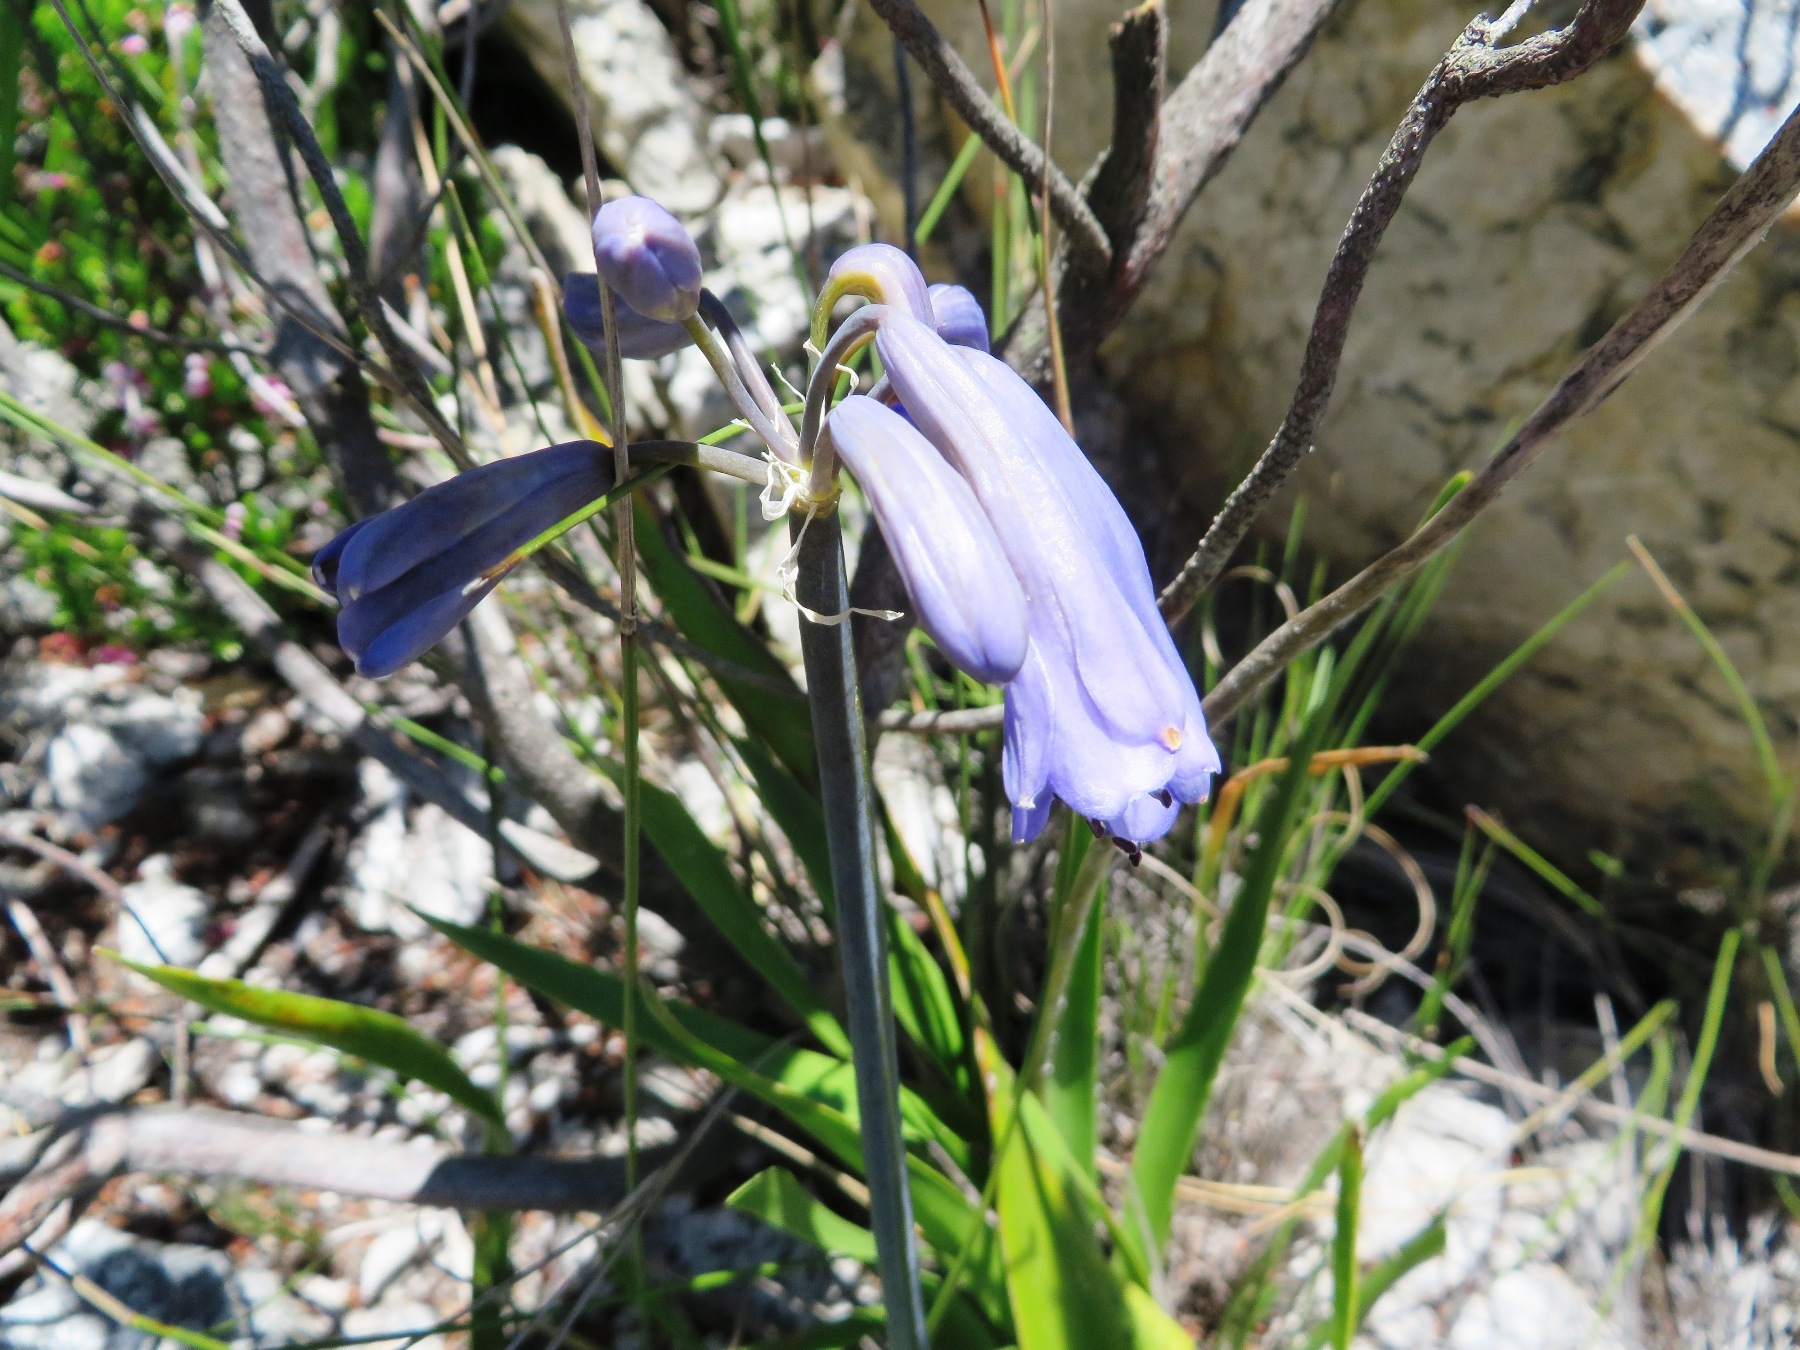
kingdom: Plantae
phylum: Tracheophyta
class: Liliopsida
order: Asparagales
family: Amaryllidaceae
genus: Agapanthus
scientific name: Agapanthus walshii
